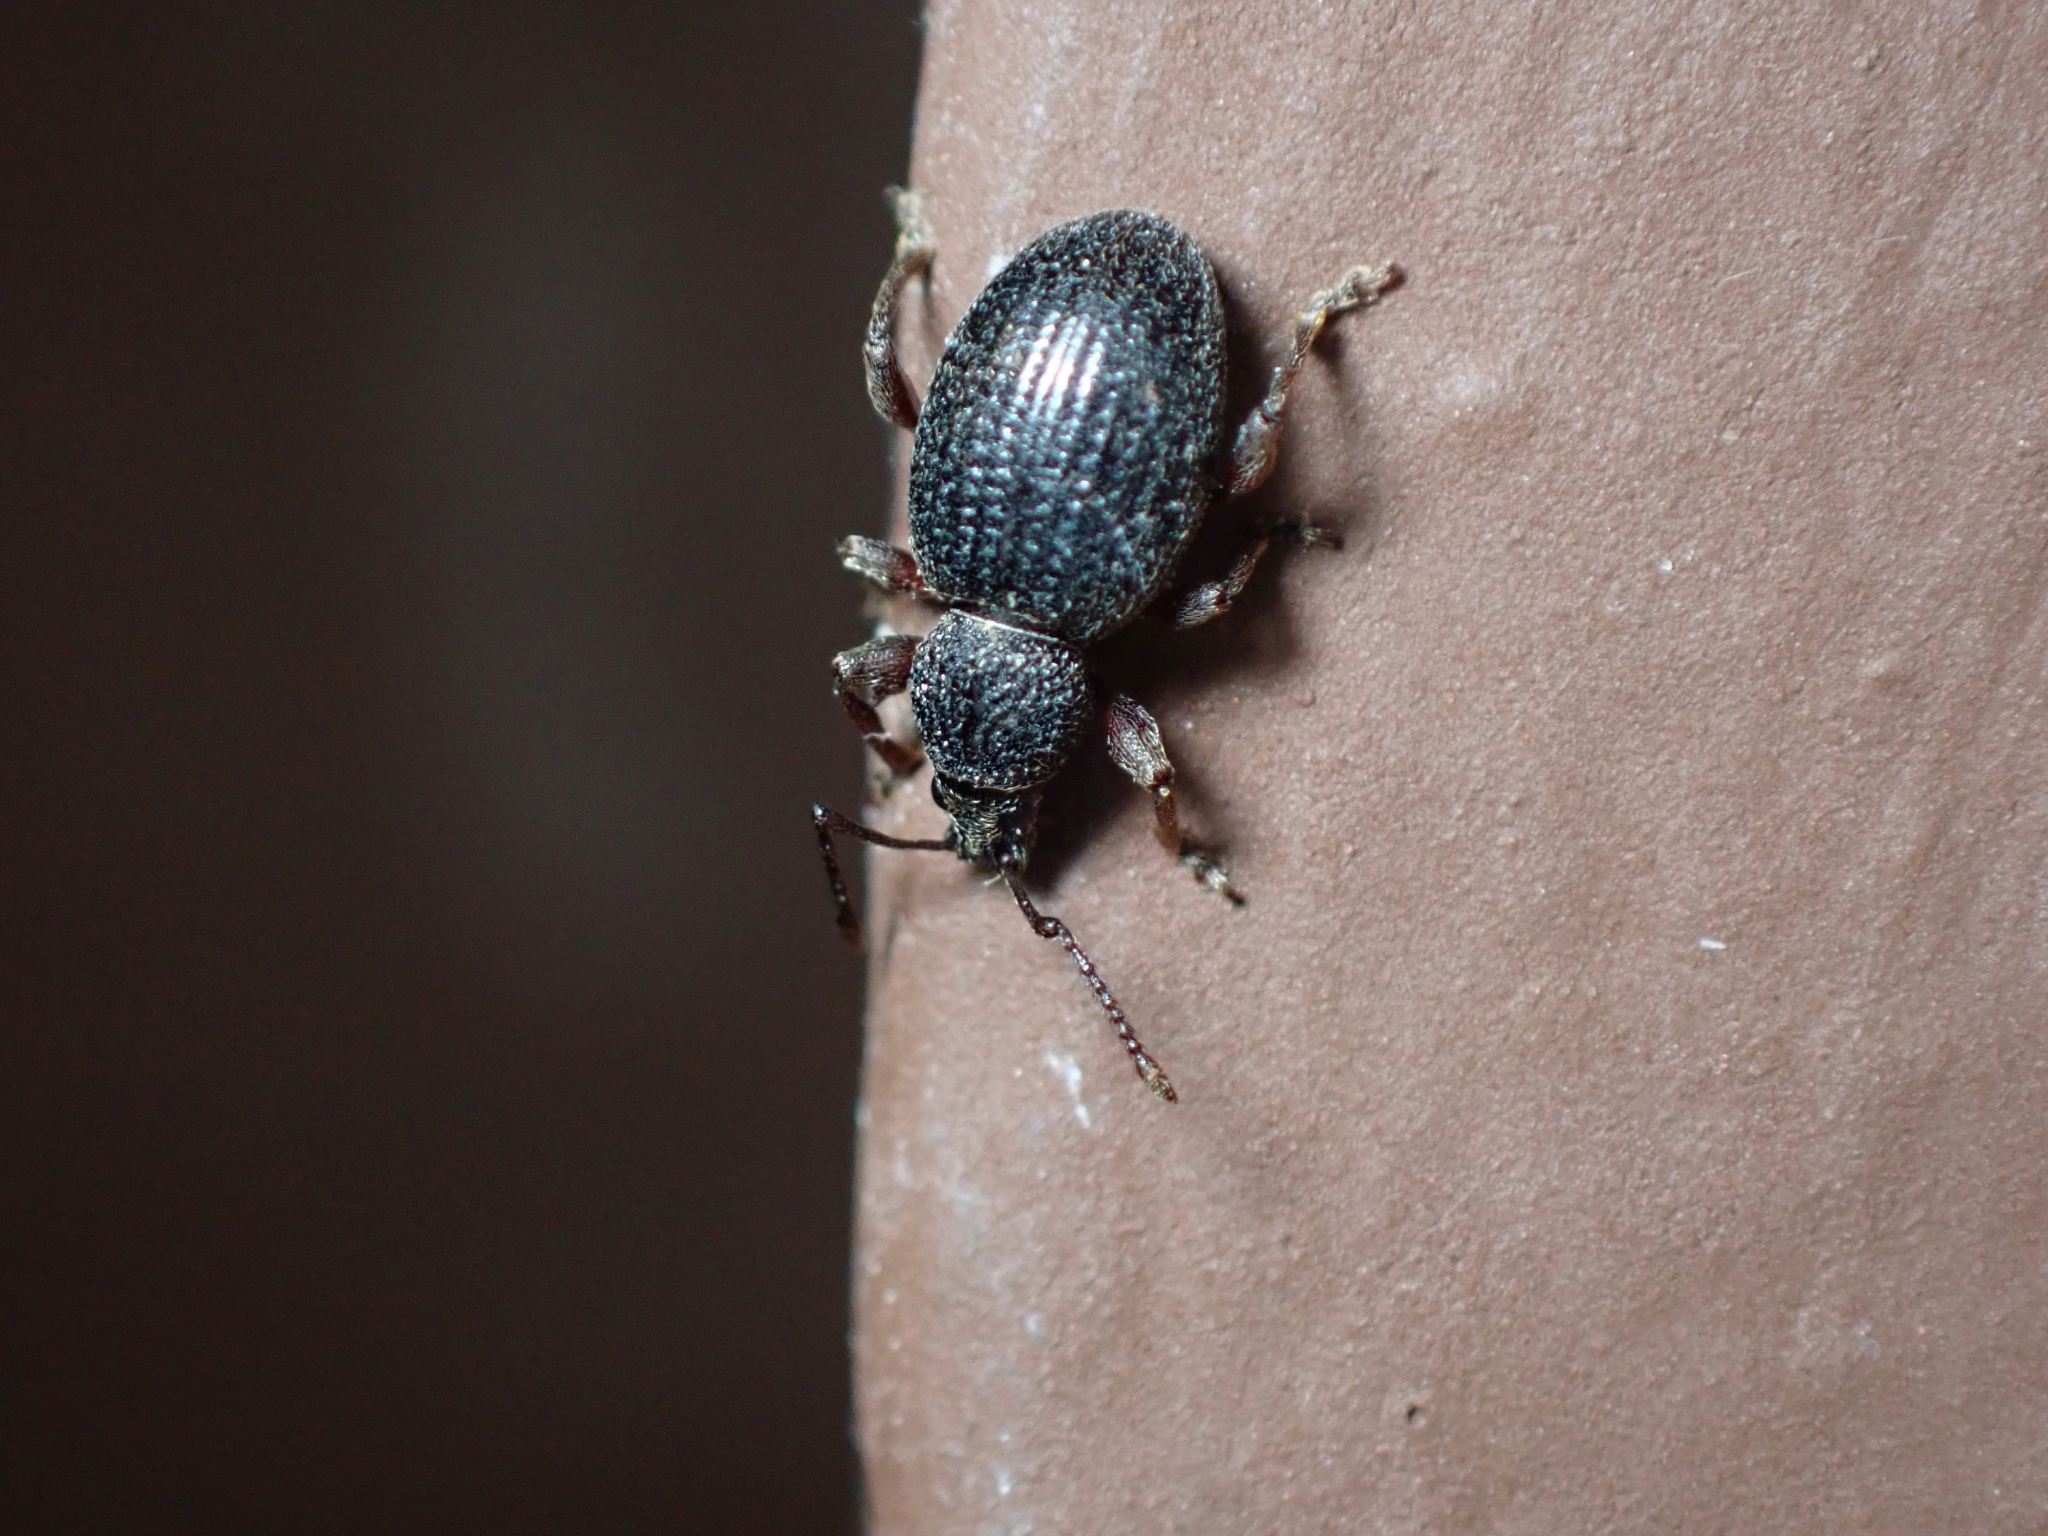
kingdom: Animalia
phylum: Arthropoda
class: Insecta
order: Coleoptera
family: Curculionidae
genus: Otiorhynchus
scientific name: Otiorhynchus ovatus
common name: Strawberry root weevil
